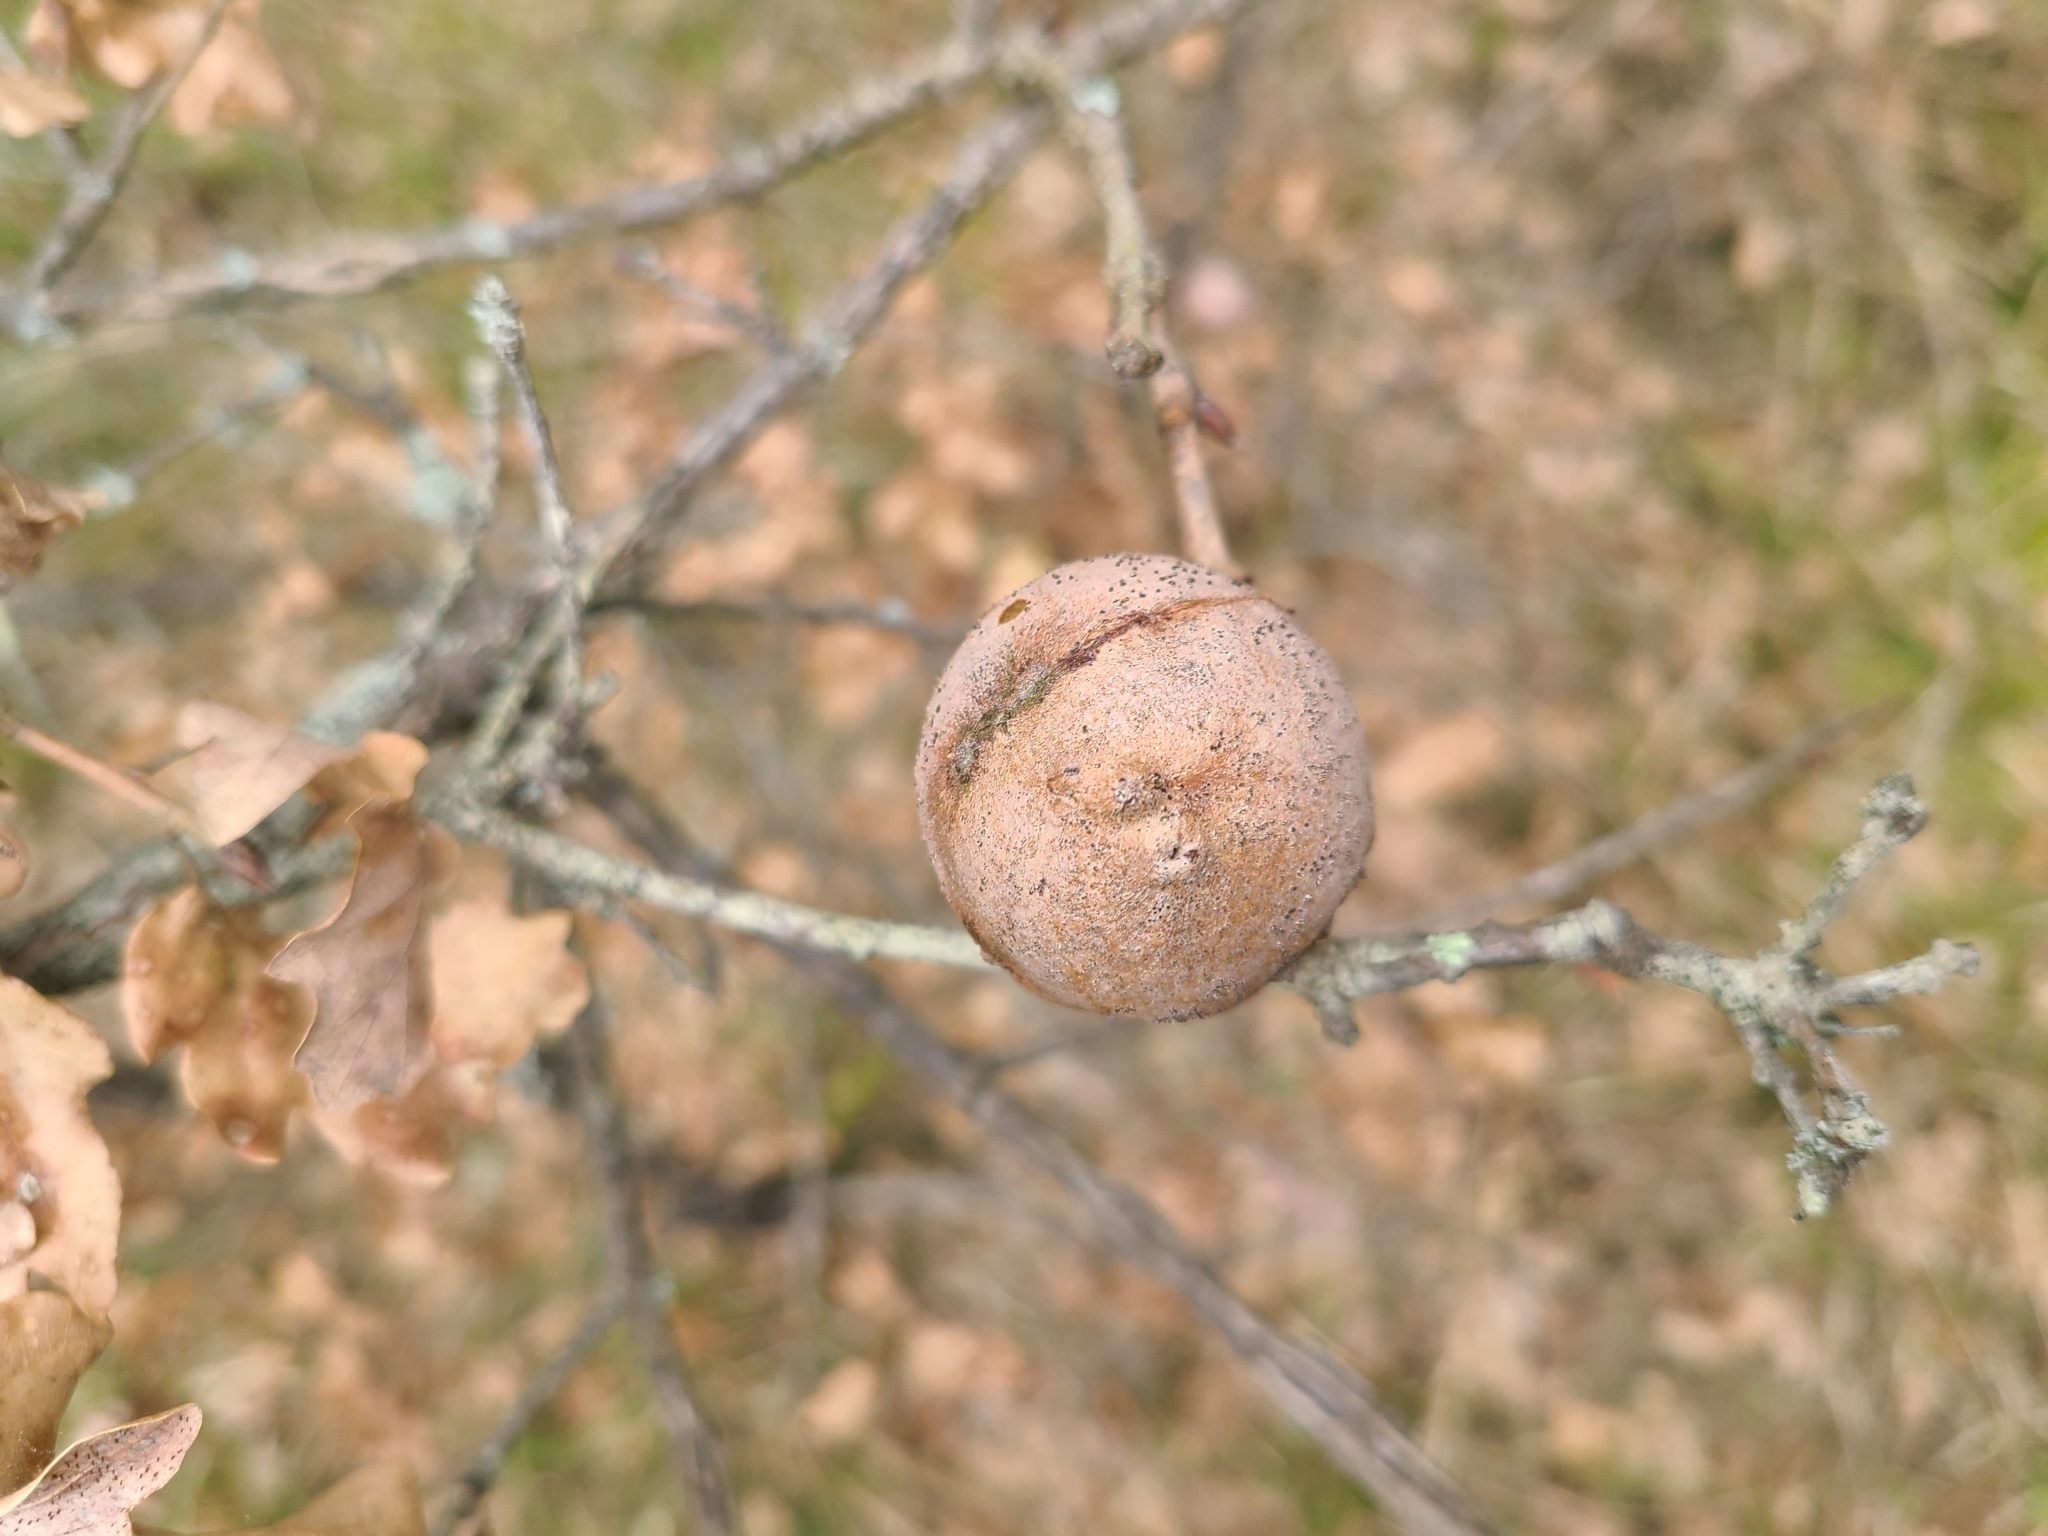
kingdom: Animalia
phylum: Arthropoda
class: Insecta
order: Hymenoptera
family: Cynipidae
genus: Andricus
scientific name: Andricus quercustozae
